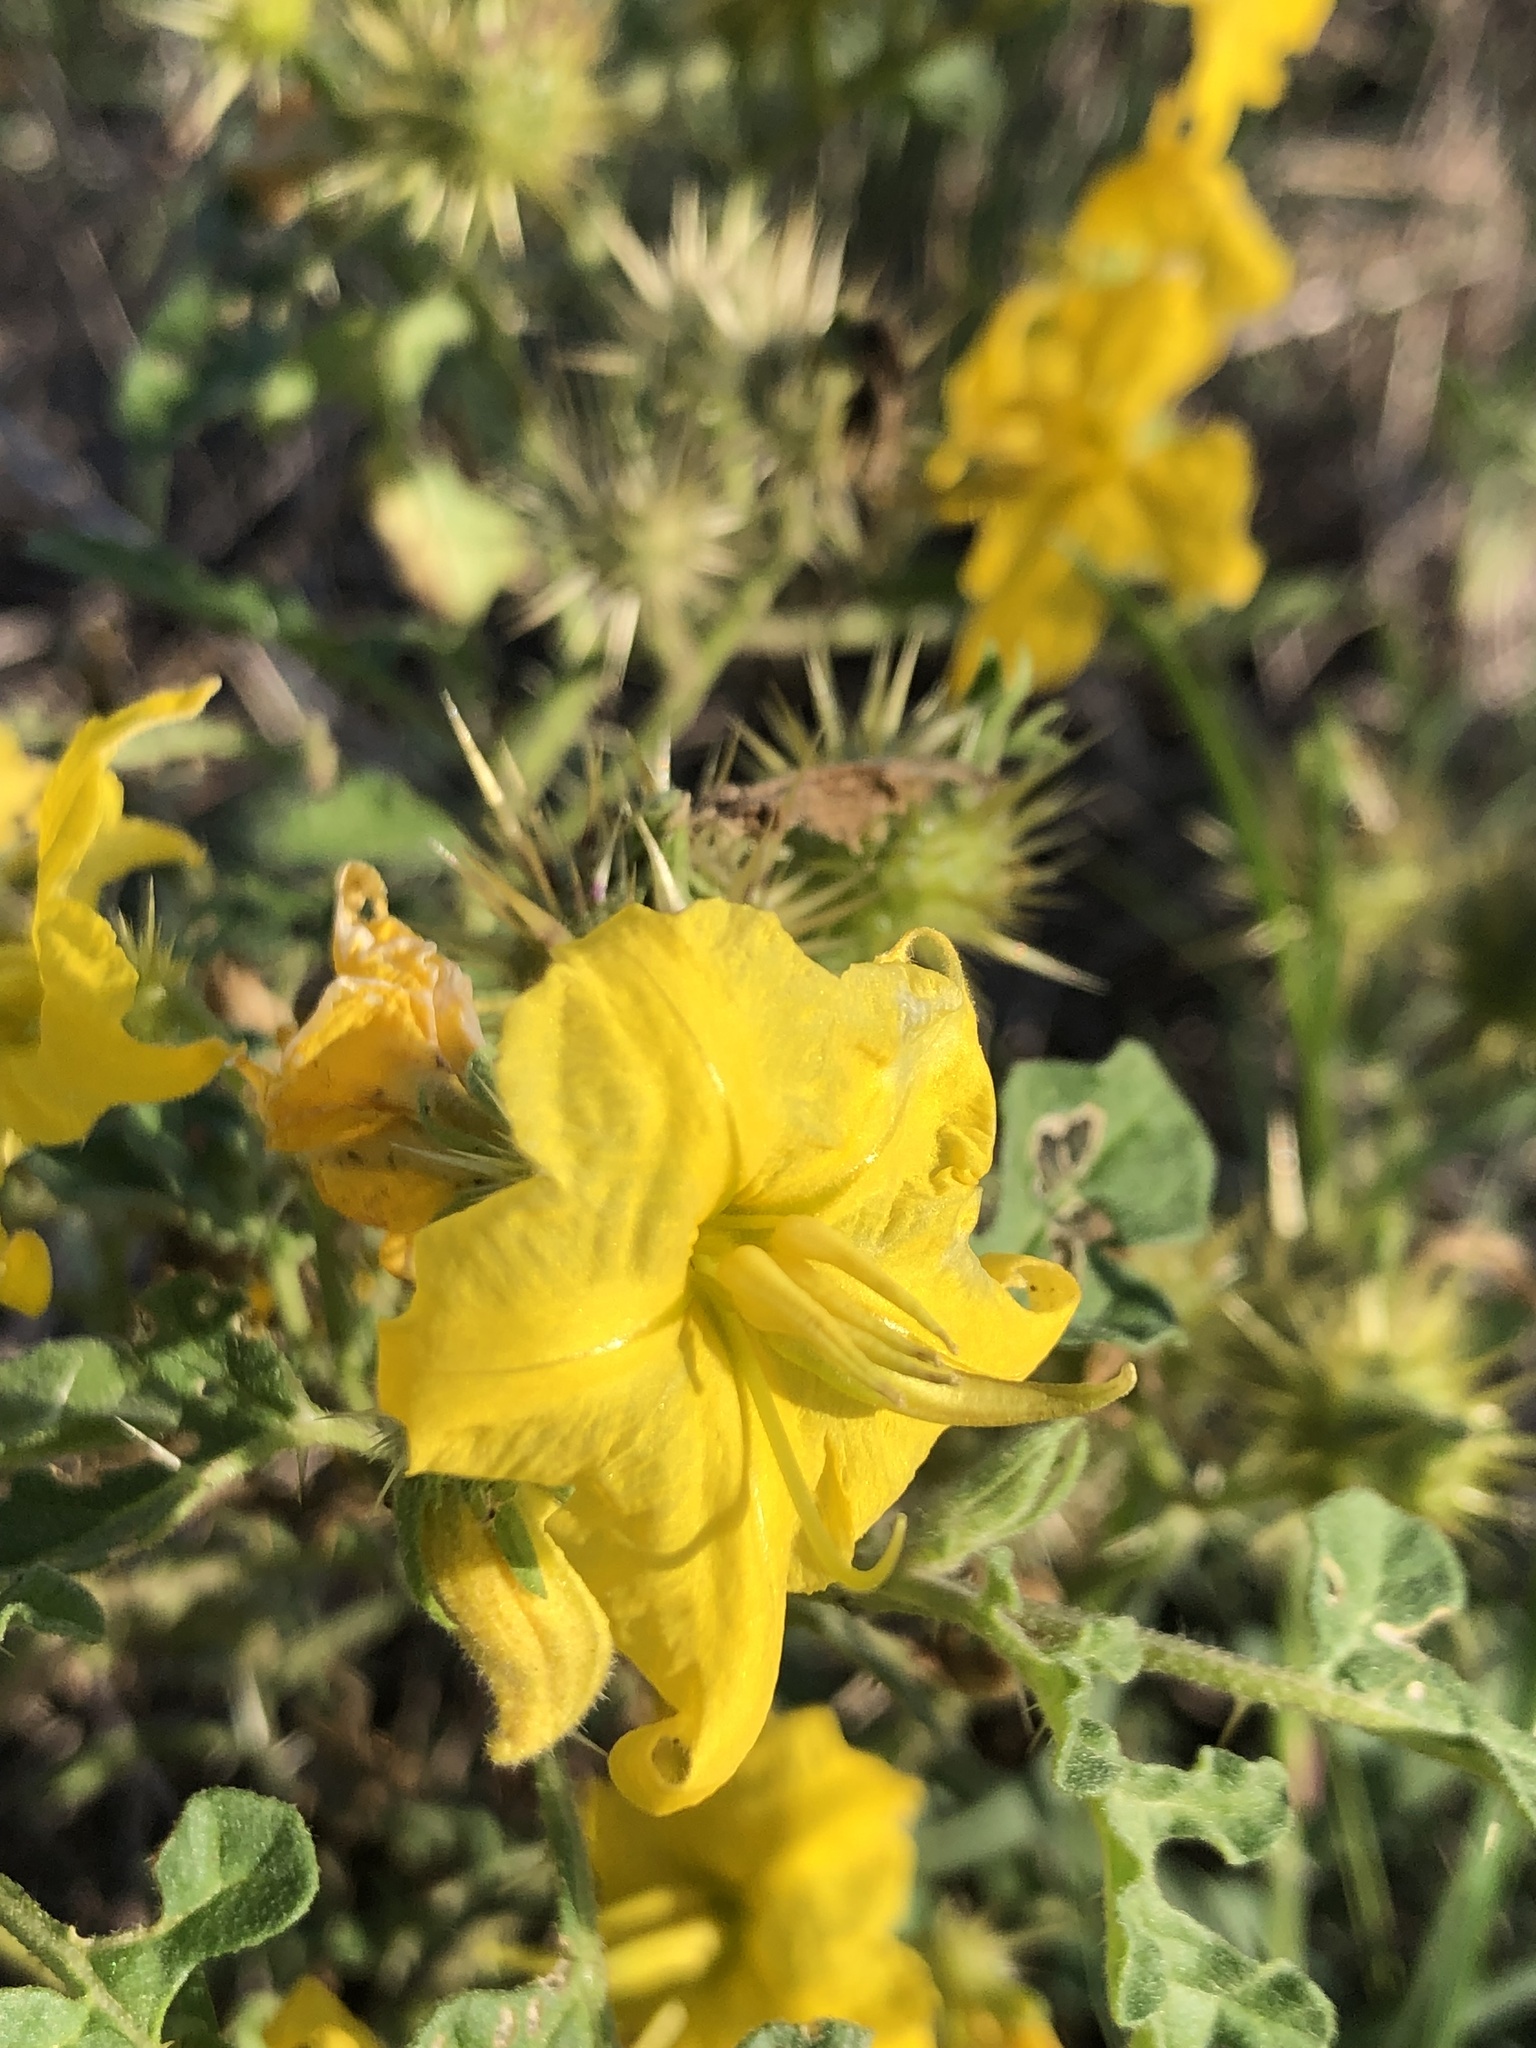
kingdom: Plantae
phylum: Tracheophyta
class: Magnoliopsida
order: Solanales
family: Solanaceae
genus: Solanum
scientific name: Solanum angustifolium
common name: Buffalobur nightshade
